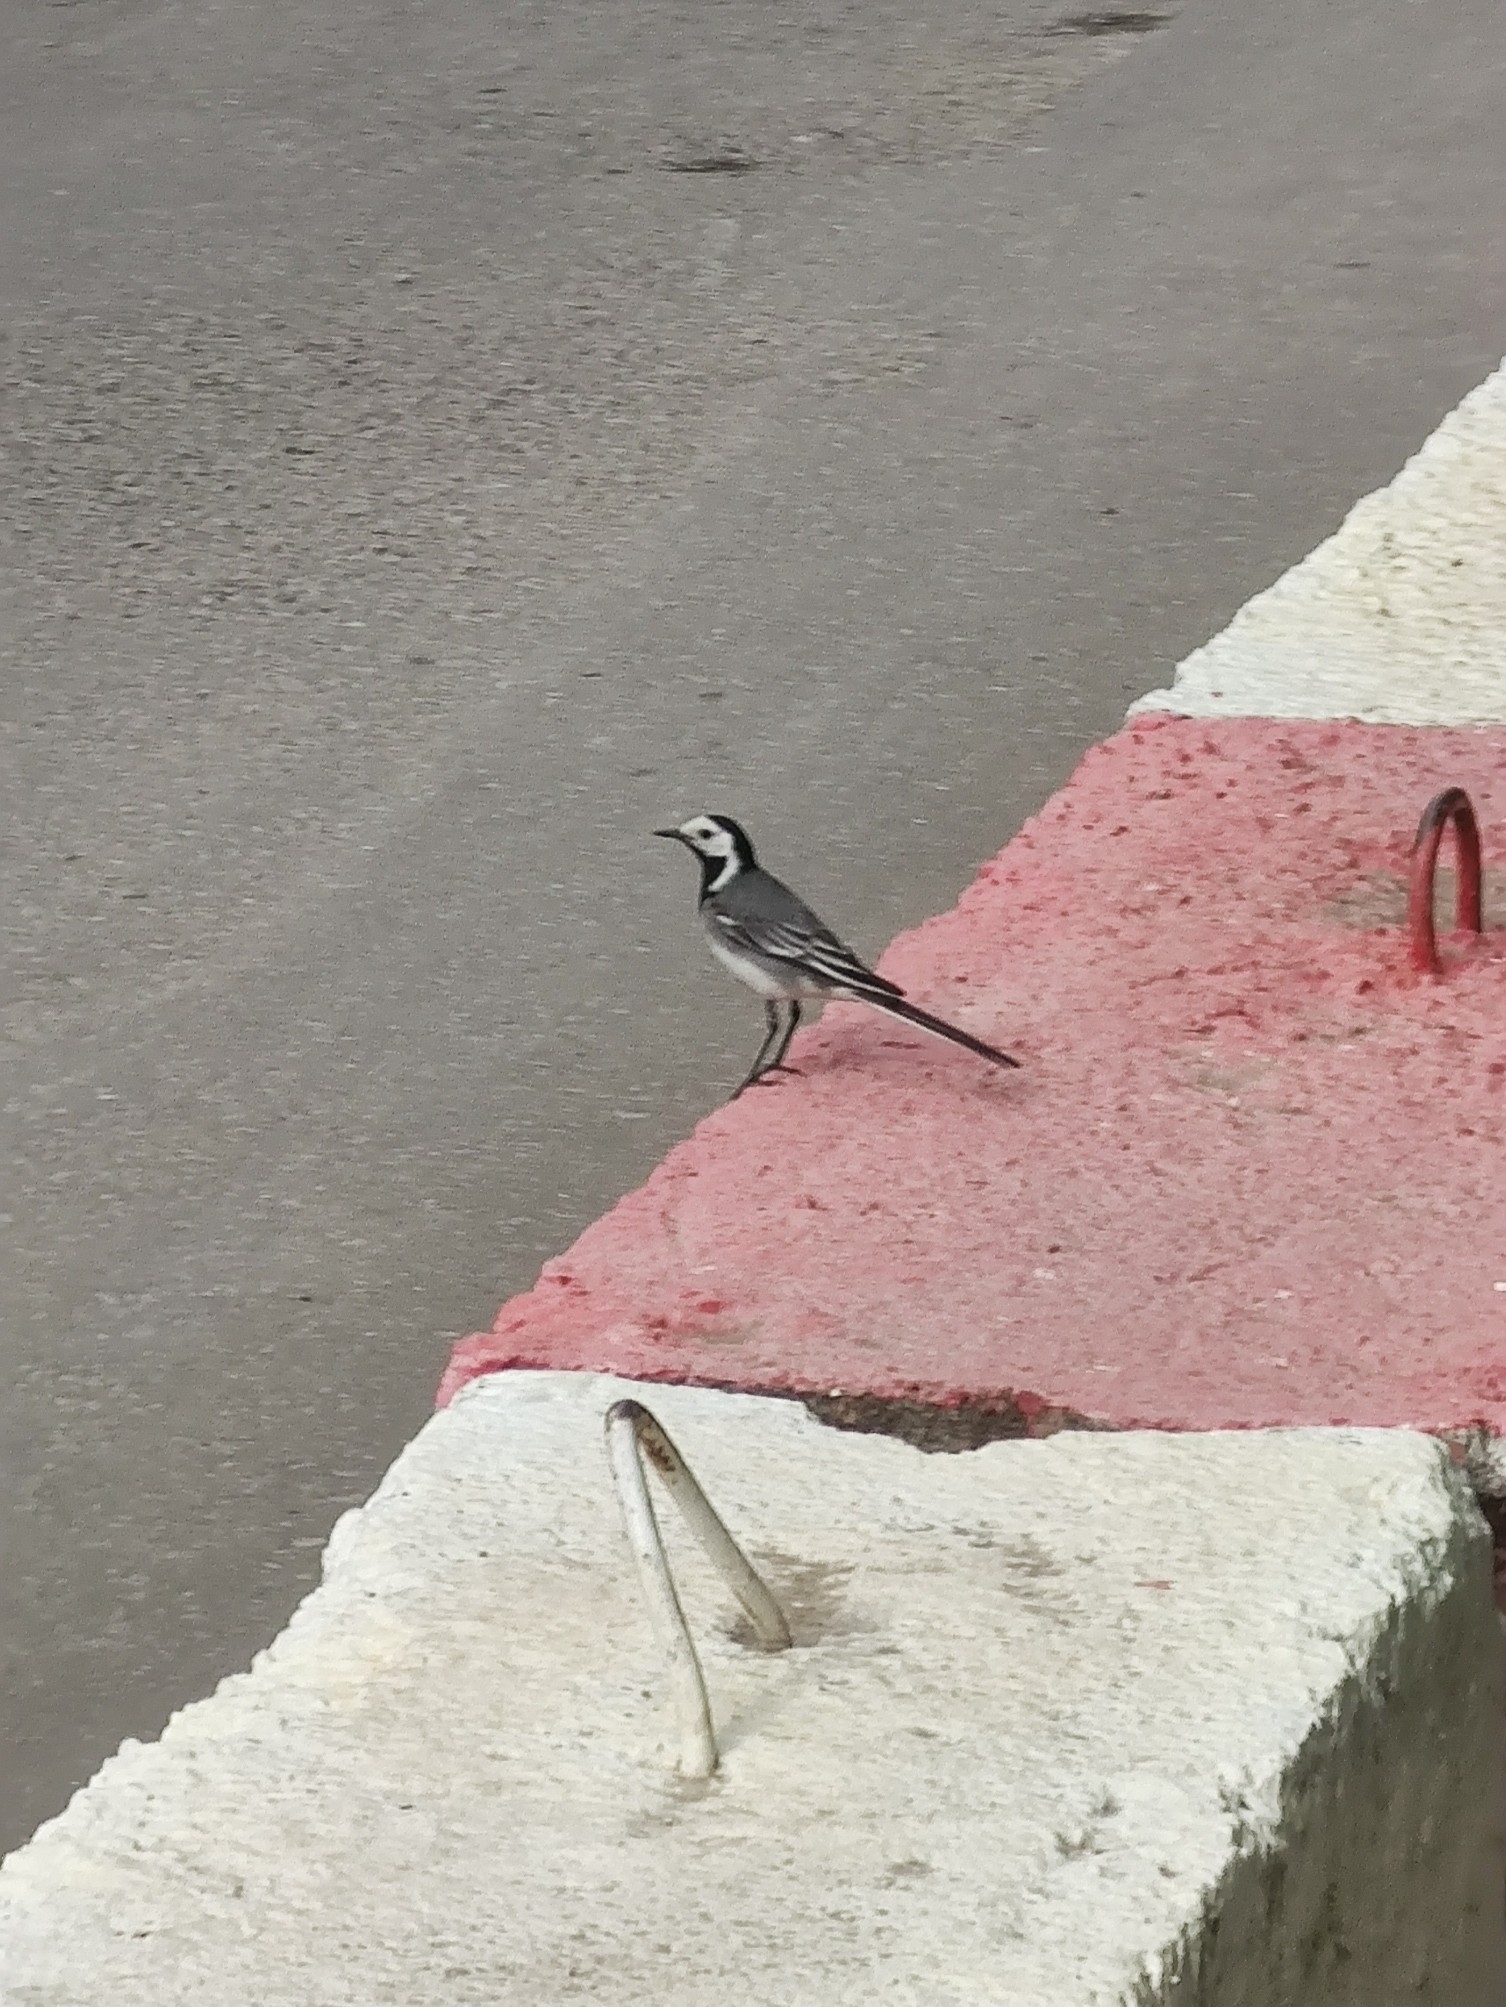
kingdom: Animalia
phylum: Chordata
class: Aves
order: Passeriformes
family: Motacillidae
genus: Motacilla
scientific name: Motacilla alba
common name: White wagtail
